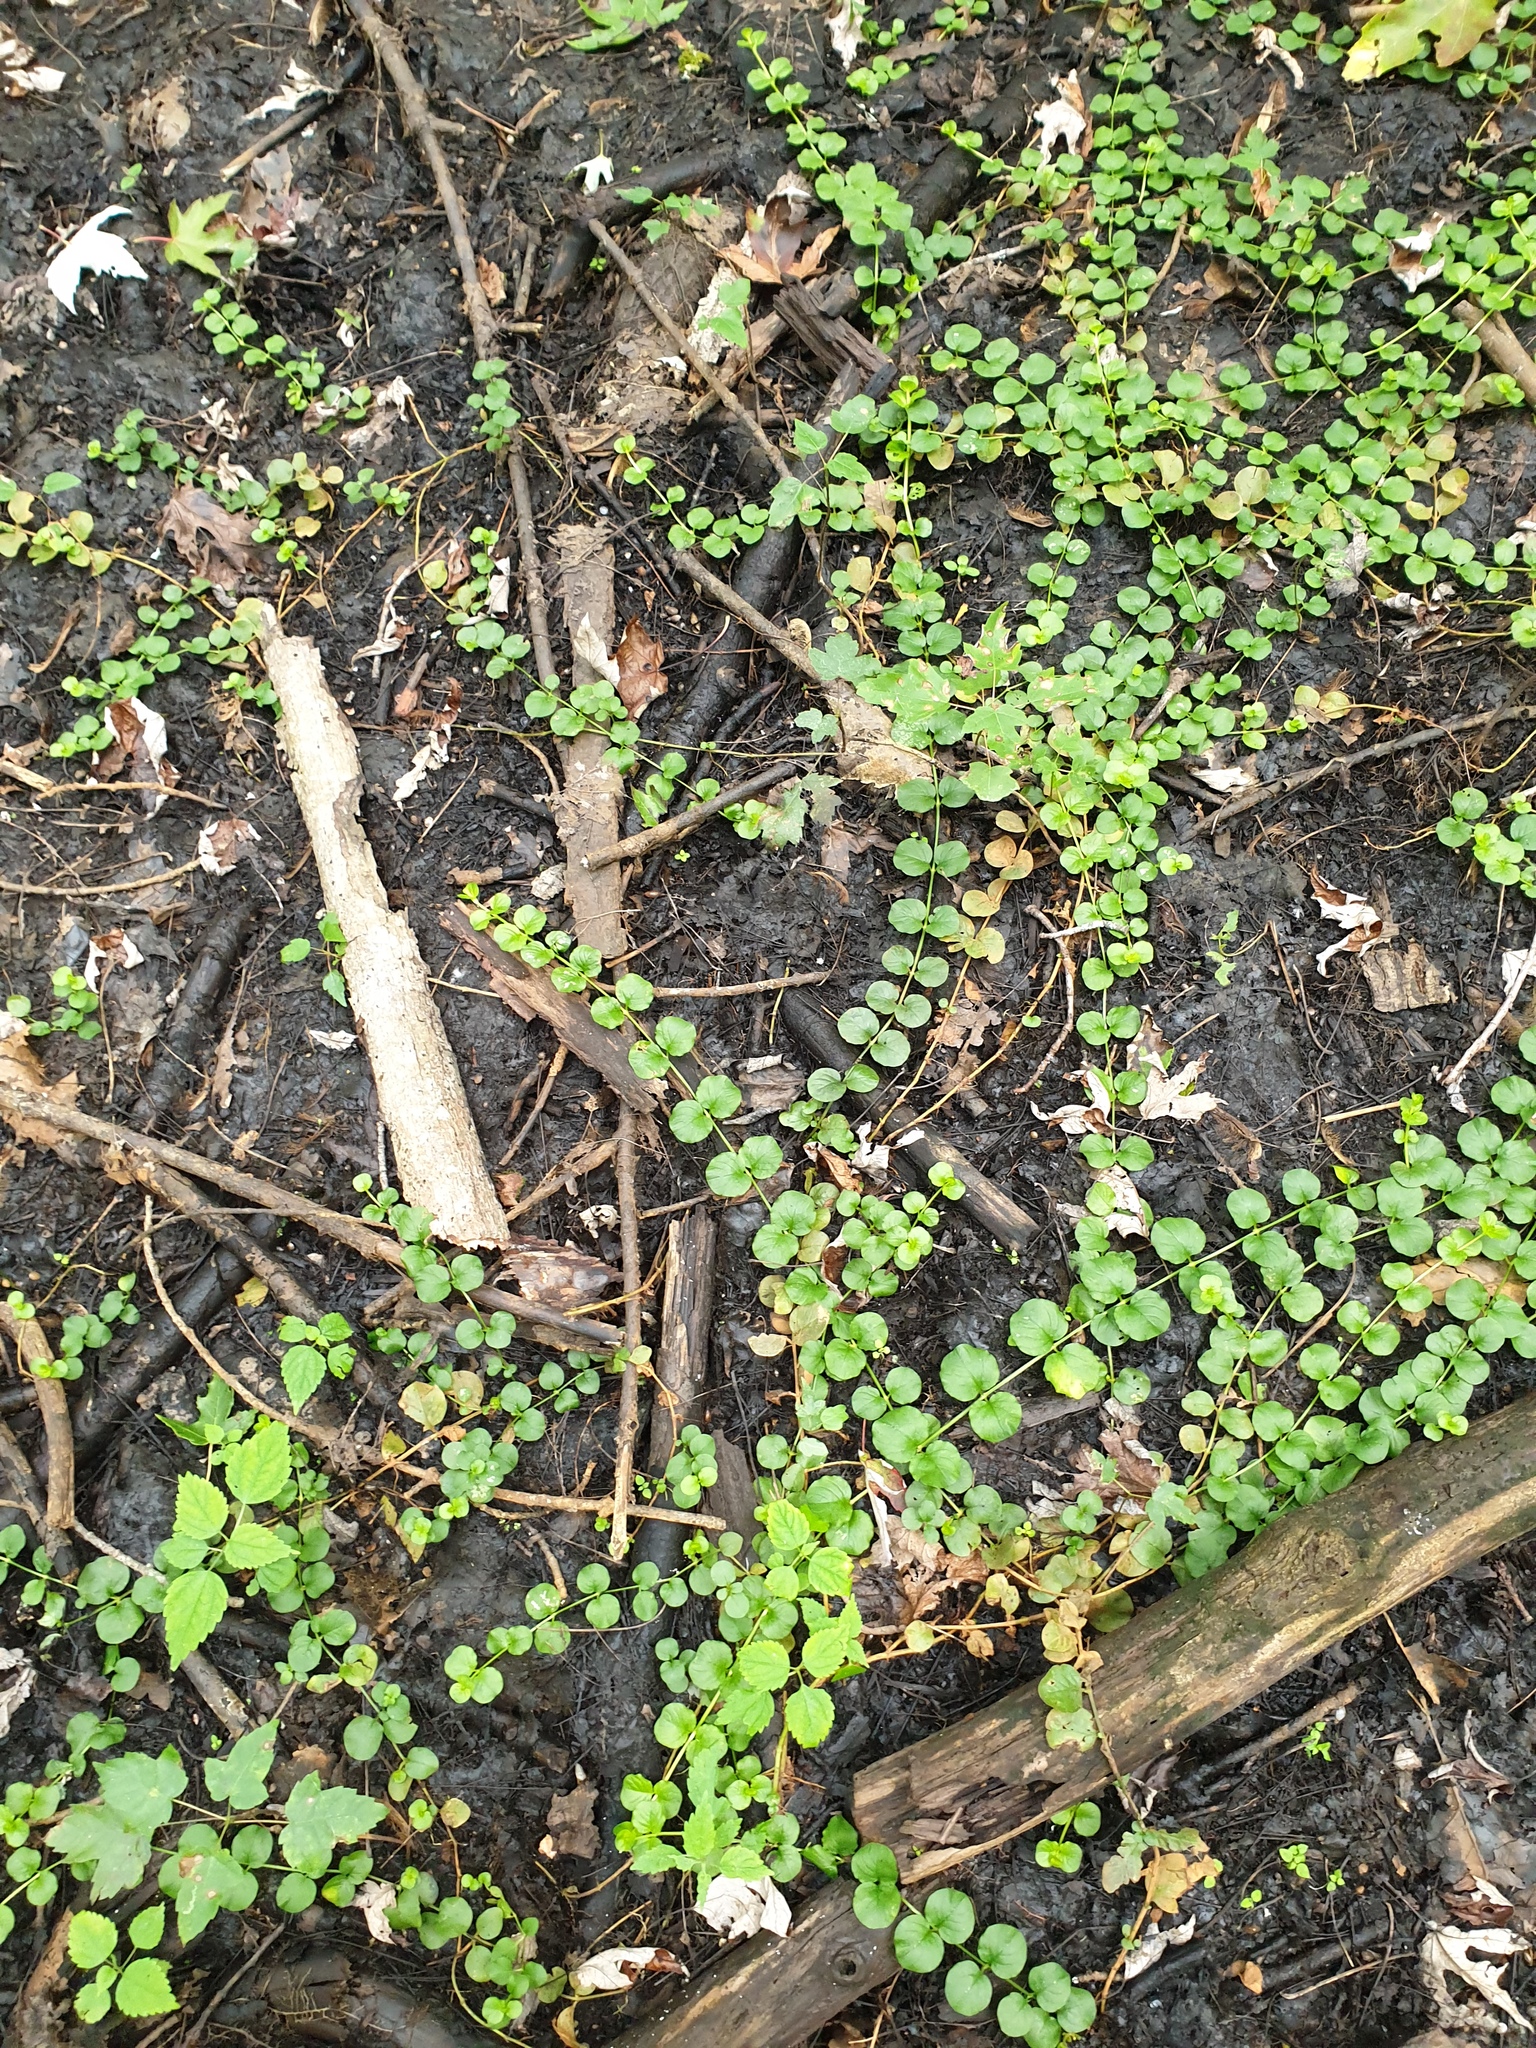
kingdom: Plantae
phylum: Tracheophyta
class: Magnoliopsida
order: Ericales
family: Primulaceae
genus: Lysimachia
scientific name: Lysimachia nummularia
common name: Moneywort
